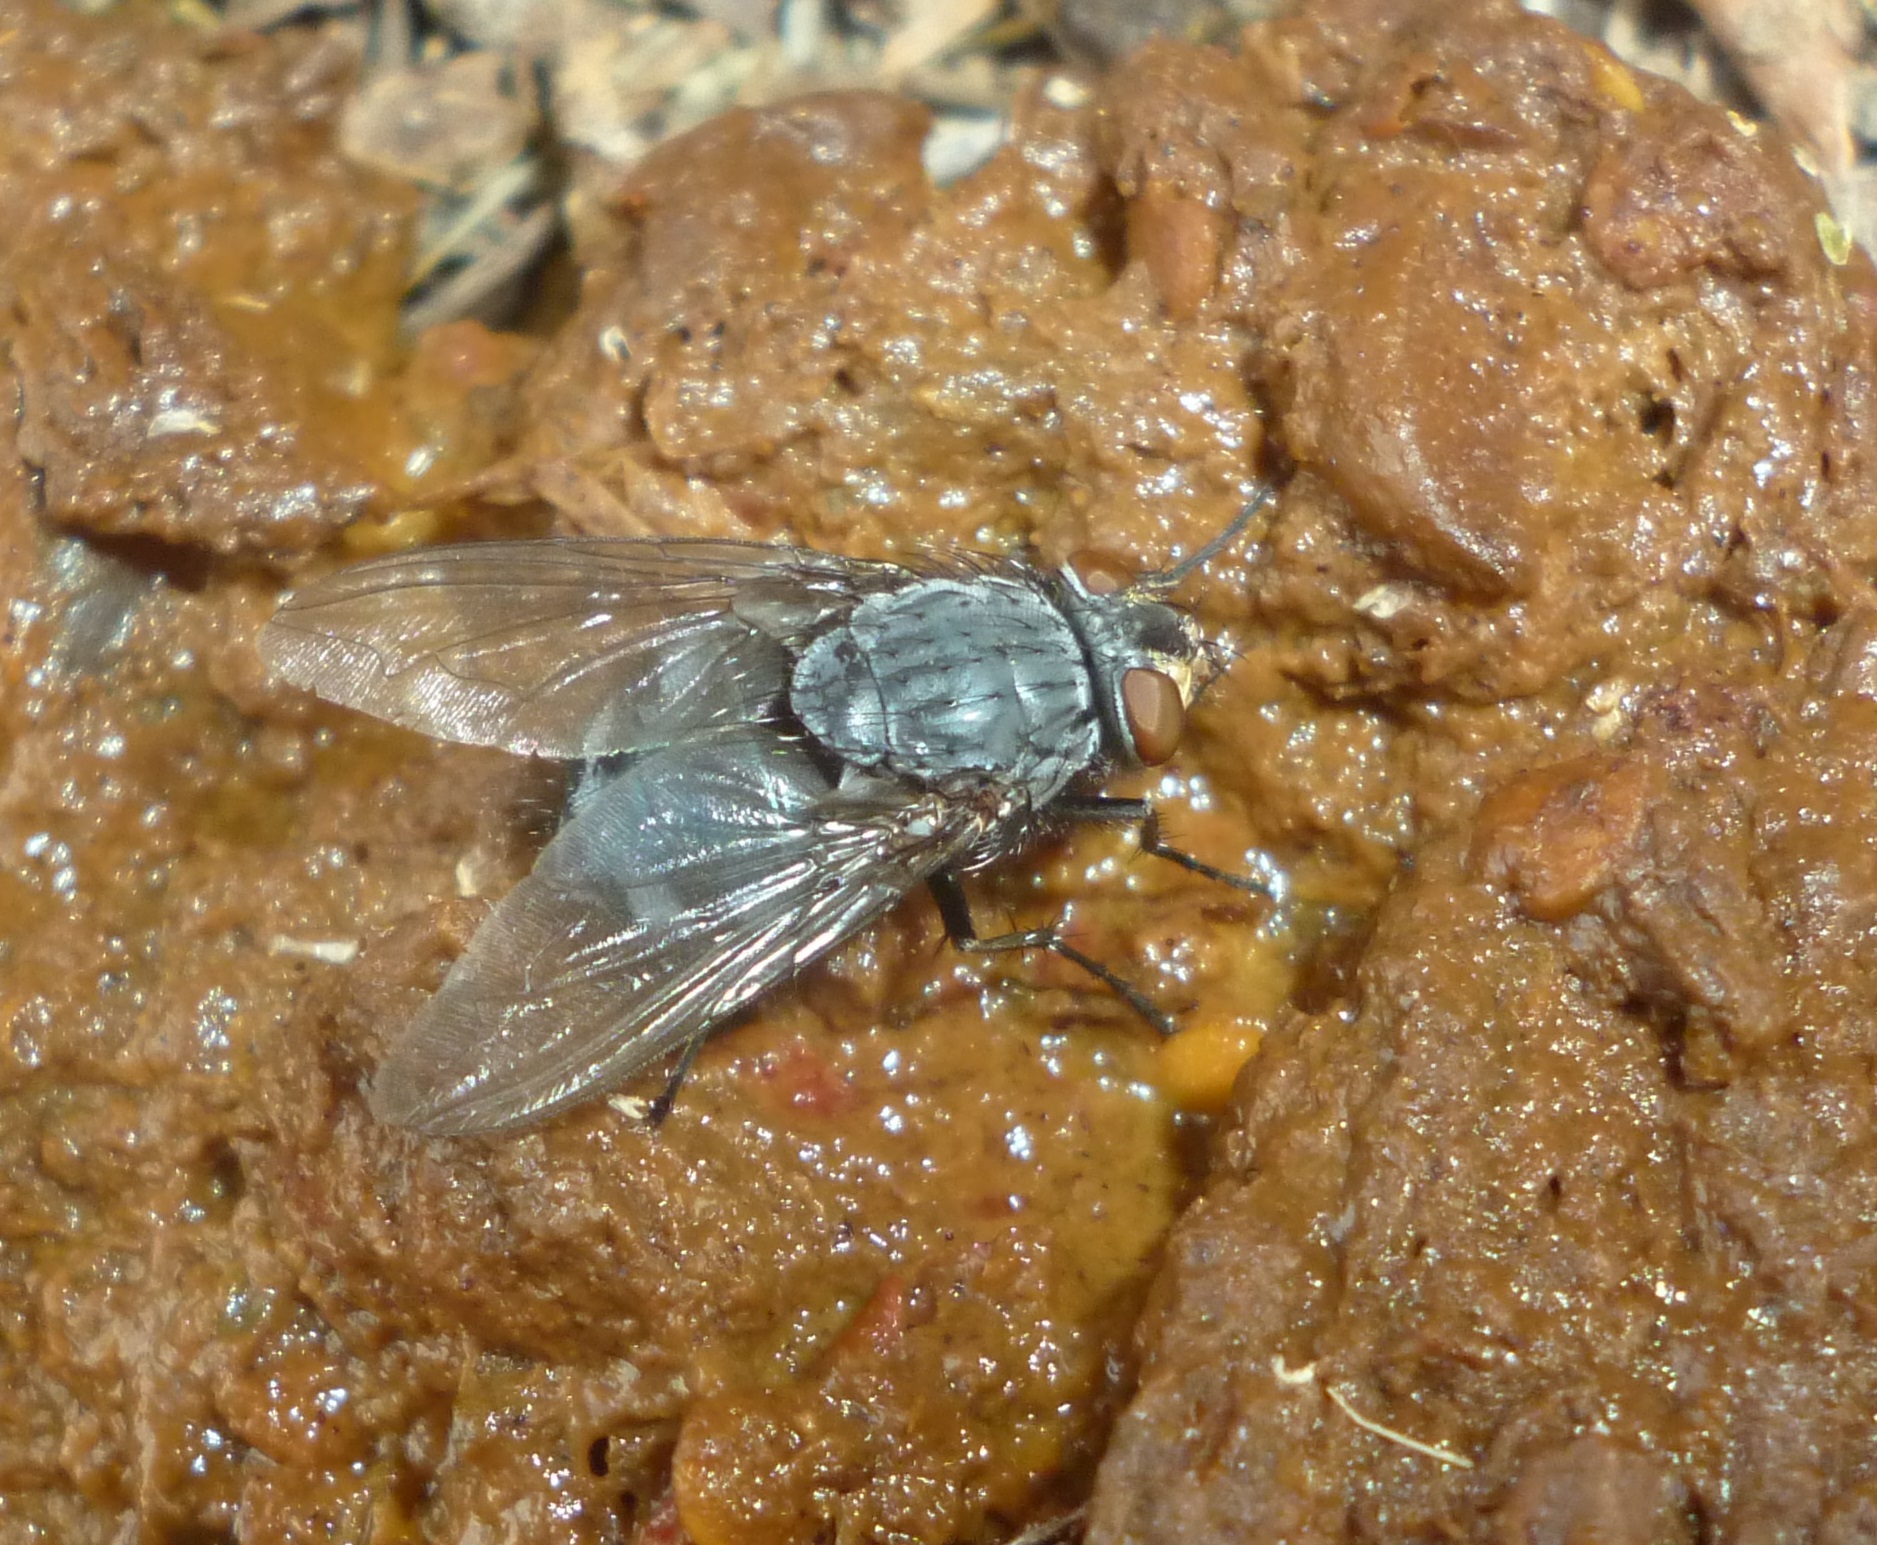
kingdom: Animalia
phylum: Arthropoda
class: Insecta
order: Diptera
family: Calliphoridae
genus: Calliphora
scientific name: Calliphora vicina
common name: Common blow flie
